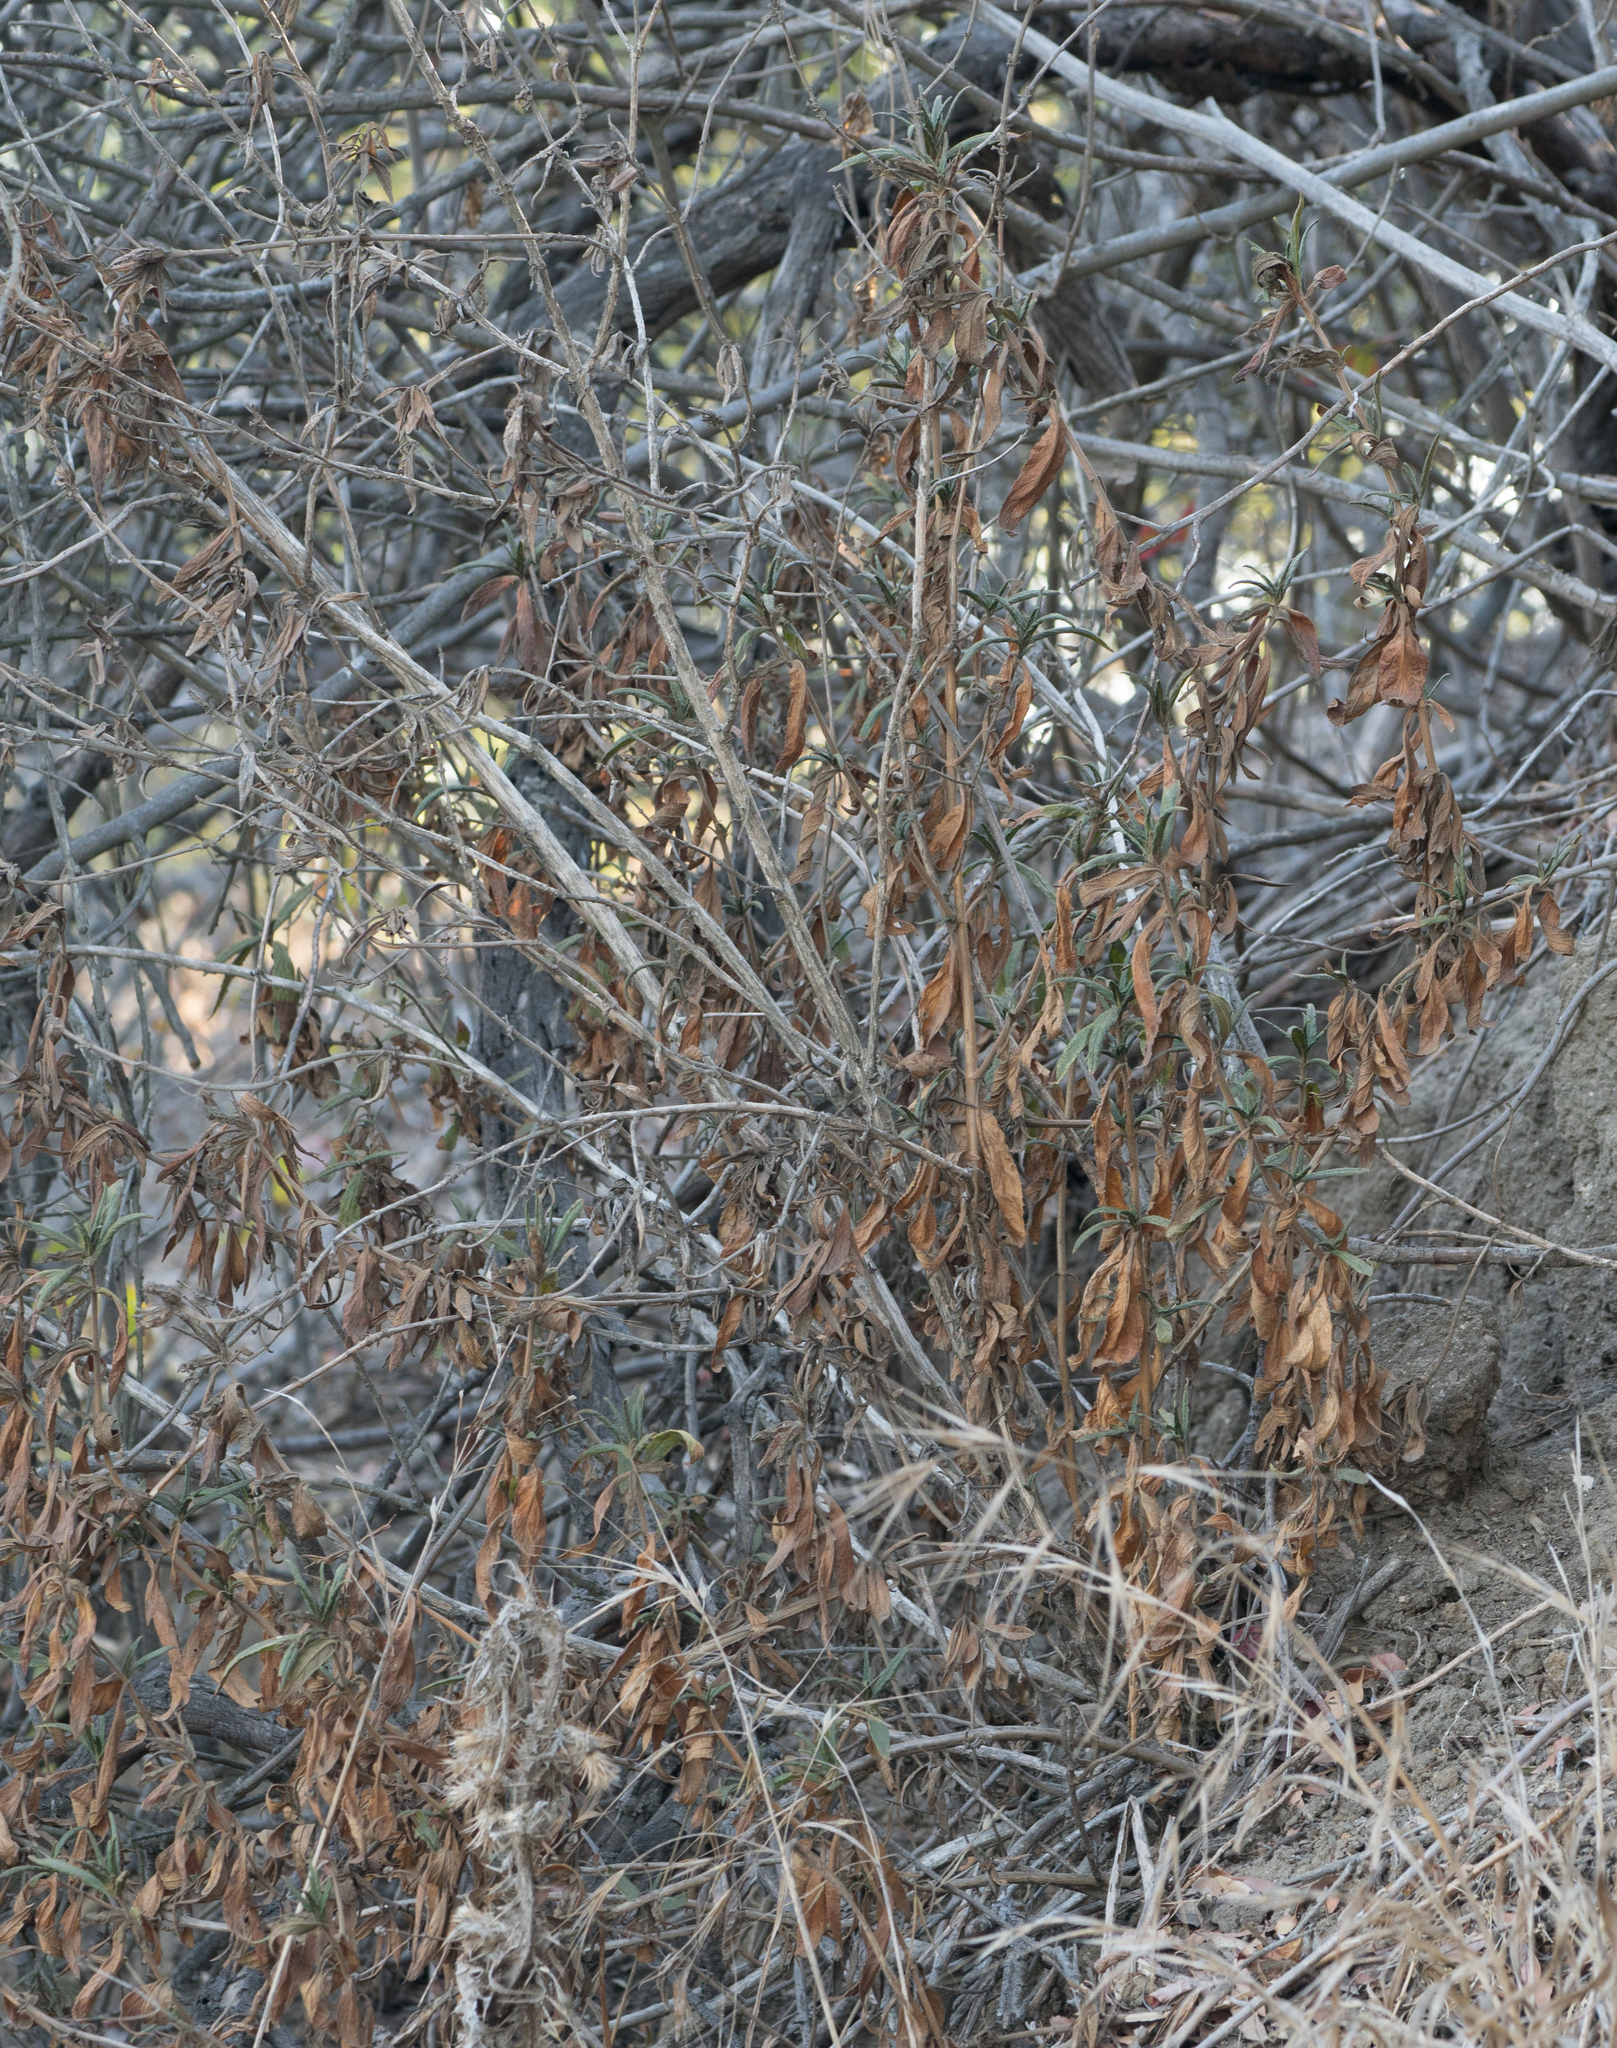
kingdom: Plantae
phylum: Tracheophyta
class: Magnoliopsida
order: Lamiales
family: Phrymaceae
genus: Diplacus
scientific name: Diplacus longiflorus
